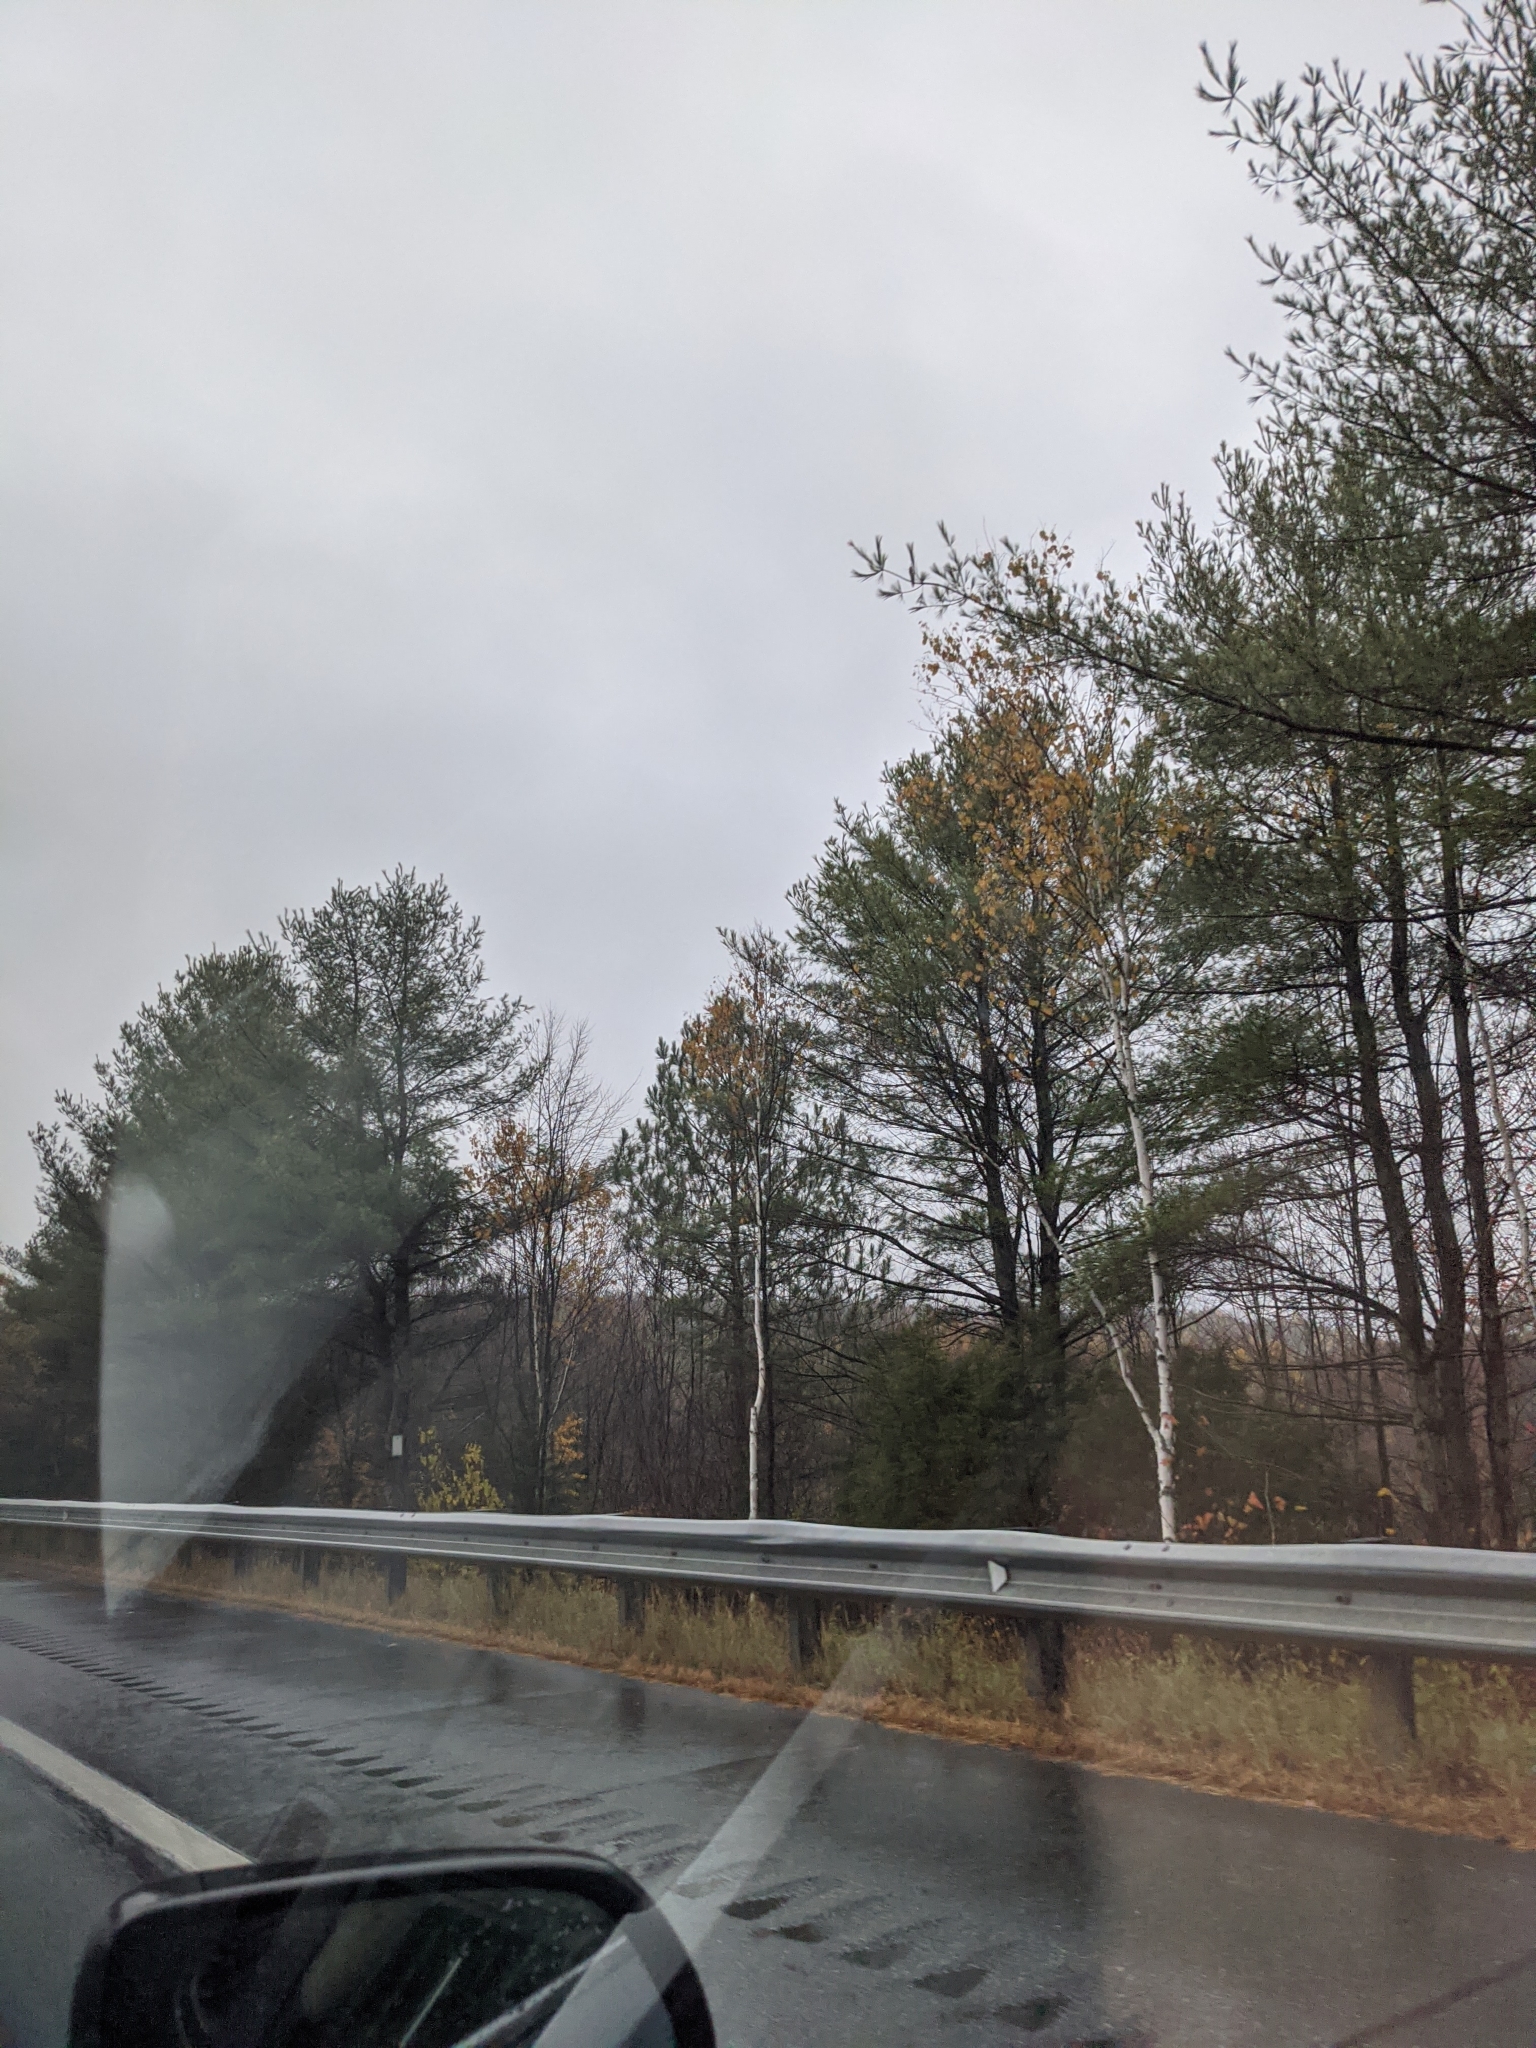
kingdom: Plantae
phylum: Tracheophyta
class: Pinopsida
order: Pinales
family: Pinaceae
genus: Pinus
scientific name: Pinus strobus
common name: Weymouth pine
